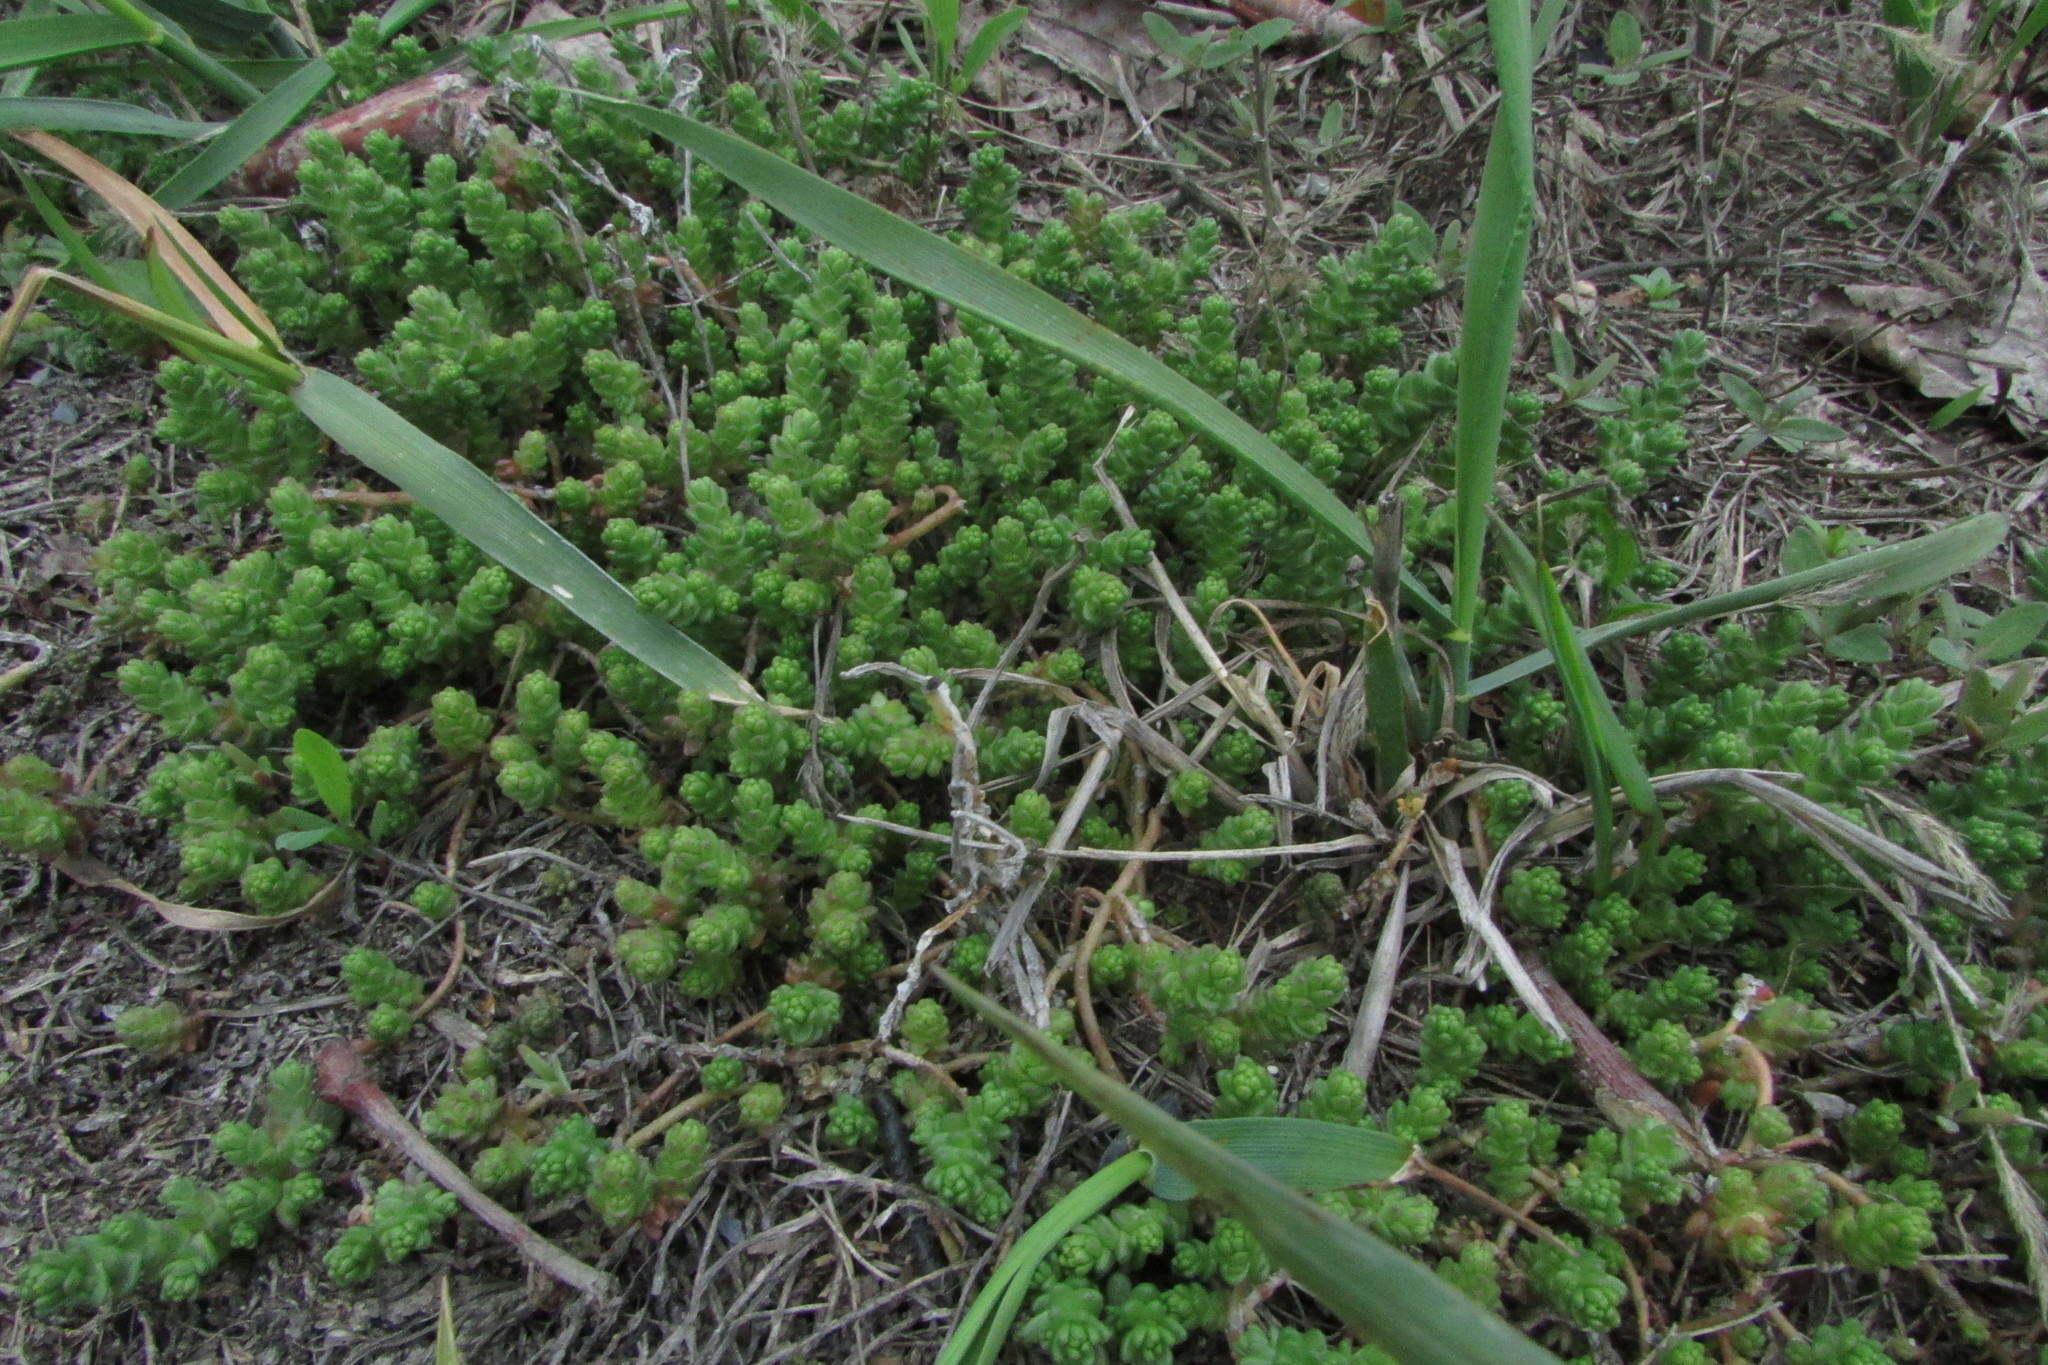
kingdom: Plantae
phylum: Tracheophyta
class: Magnoliopsida
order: Saxifragales
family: Crassulaceae
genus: Sedum
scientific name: Sedum acre
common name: Biting stonecrop
